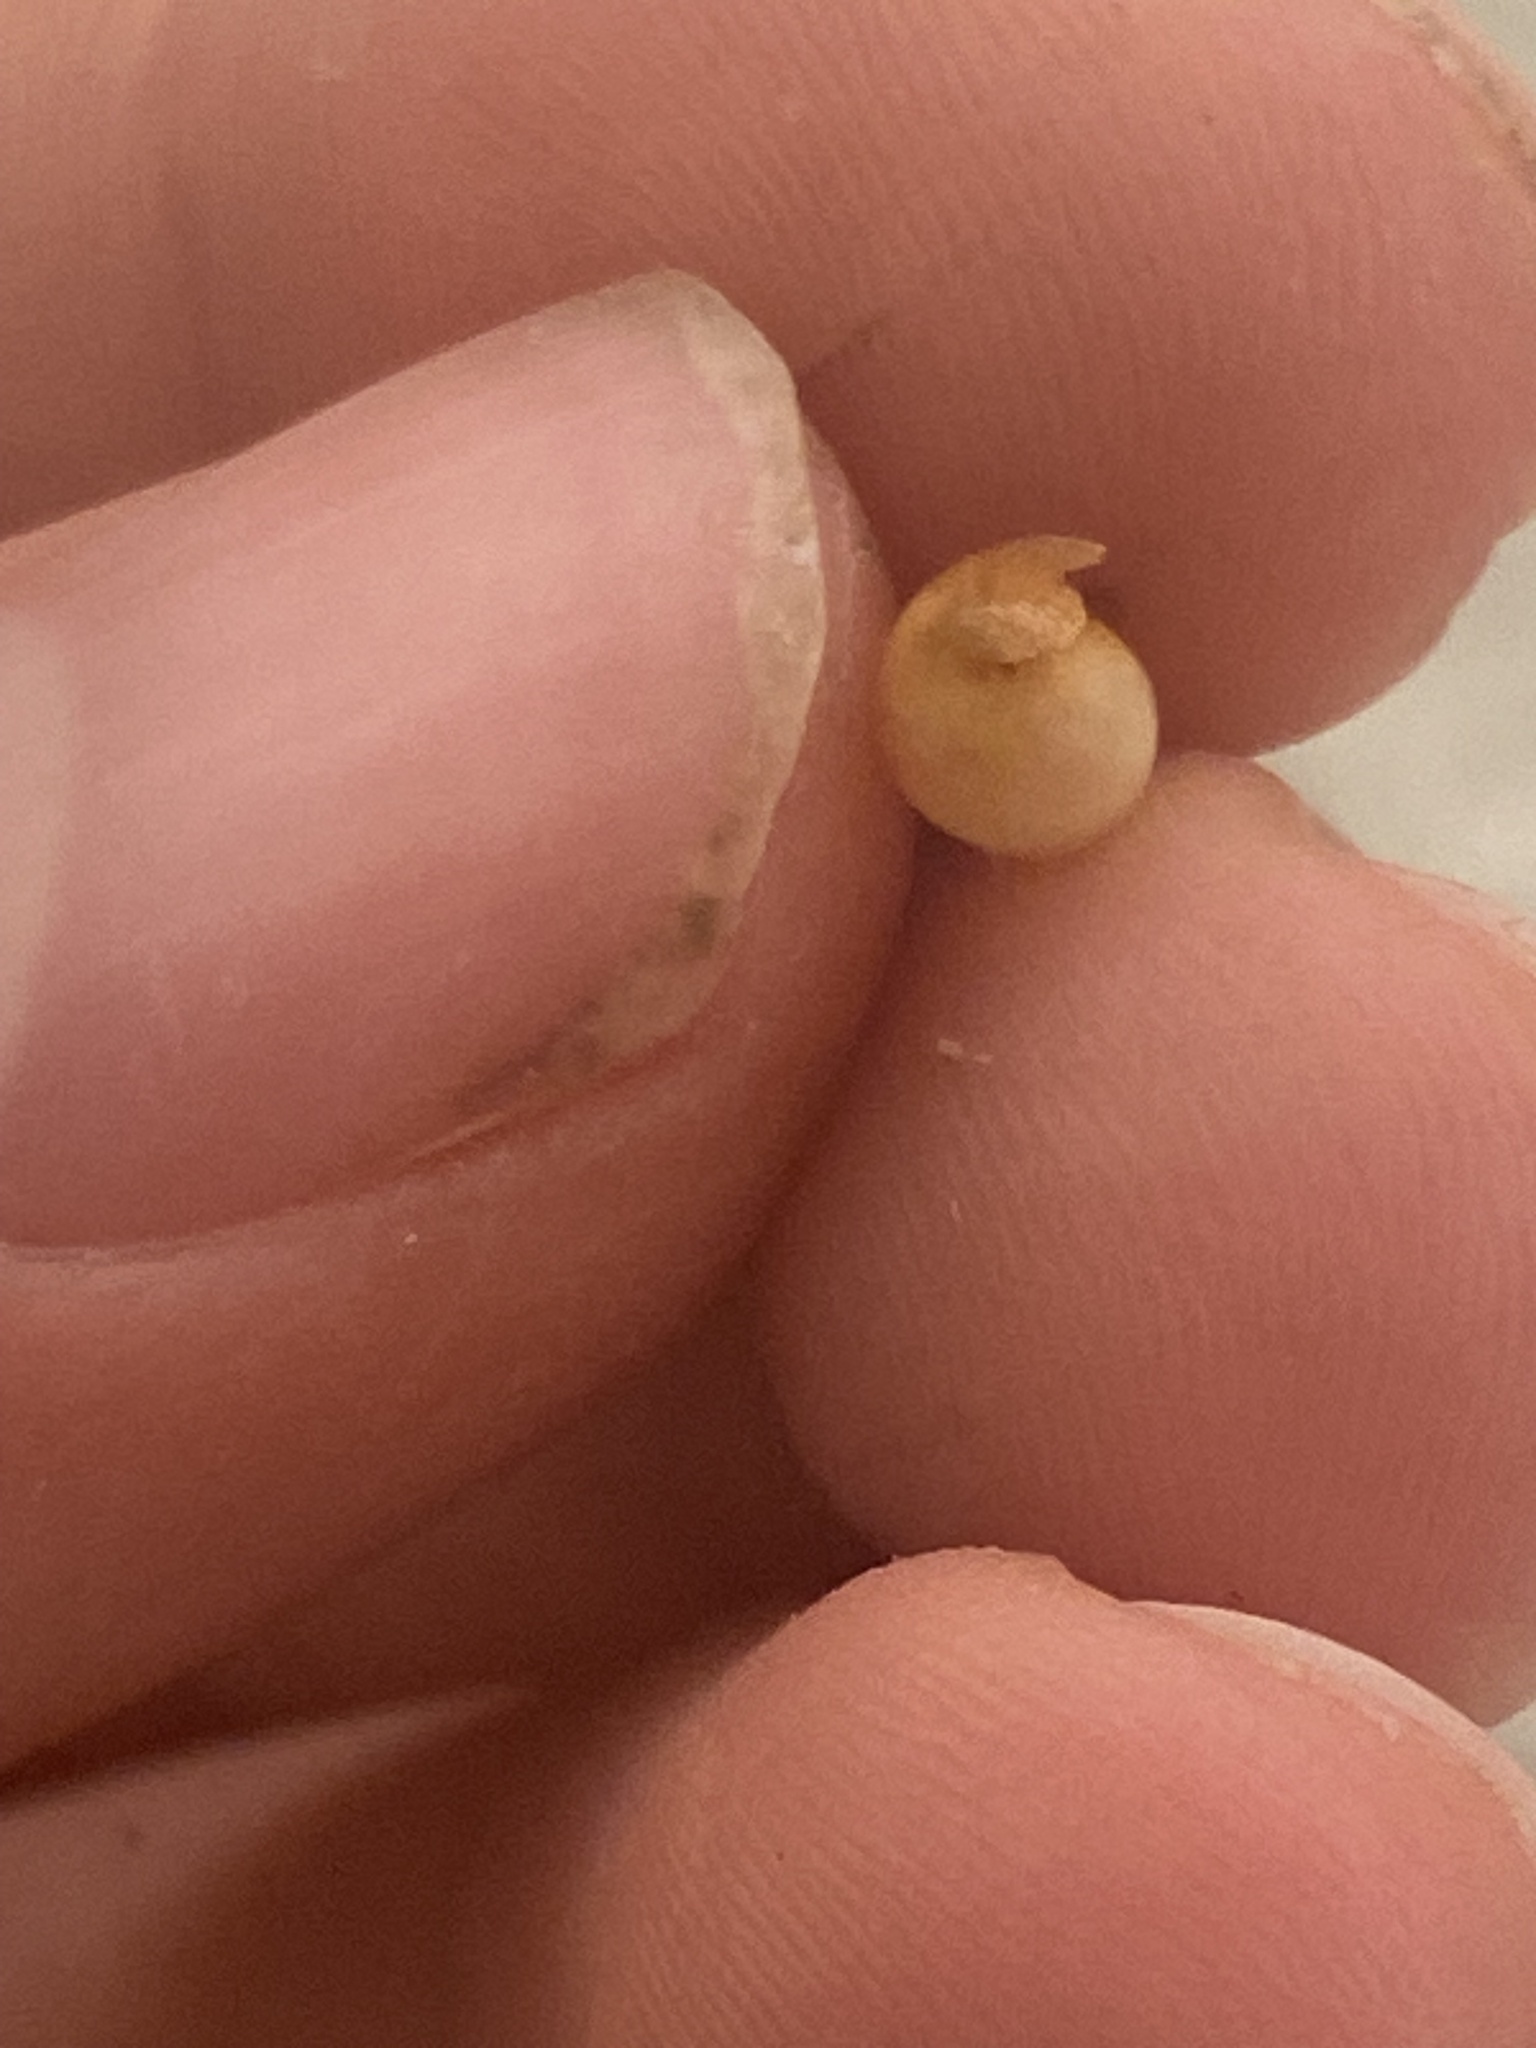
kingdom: Animalia
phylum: Mollusca
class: Gastropoda
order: Cephalaspidea
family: Haminoeidae
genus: Atys
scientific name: Atys kuhnsi
